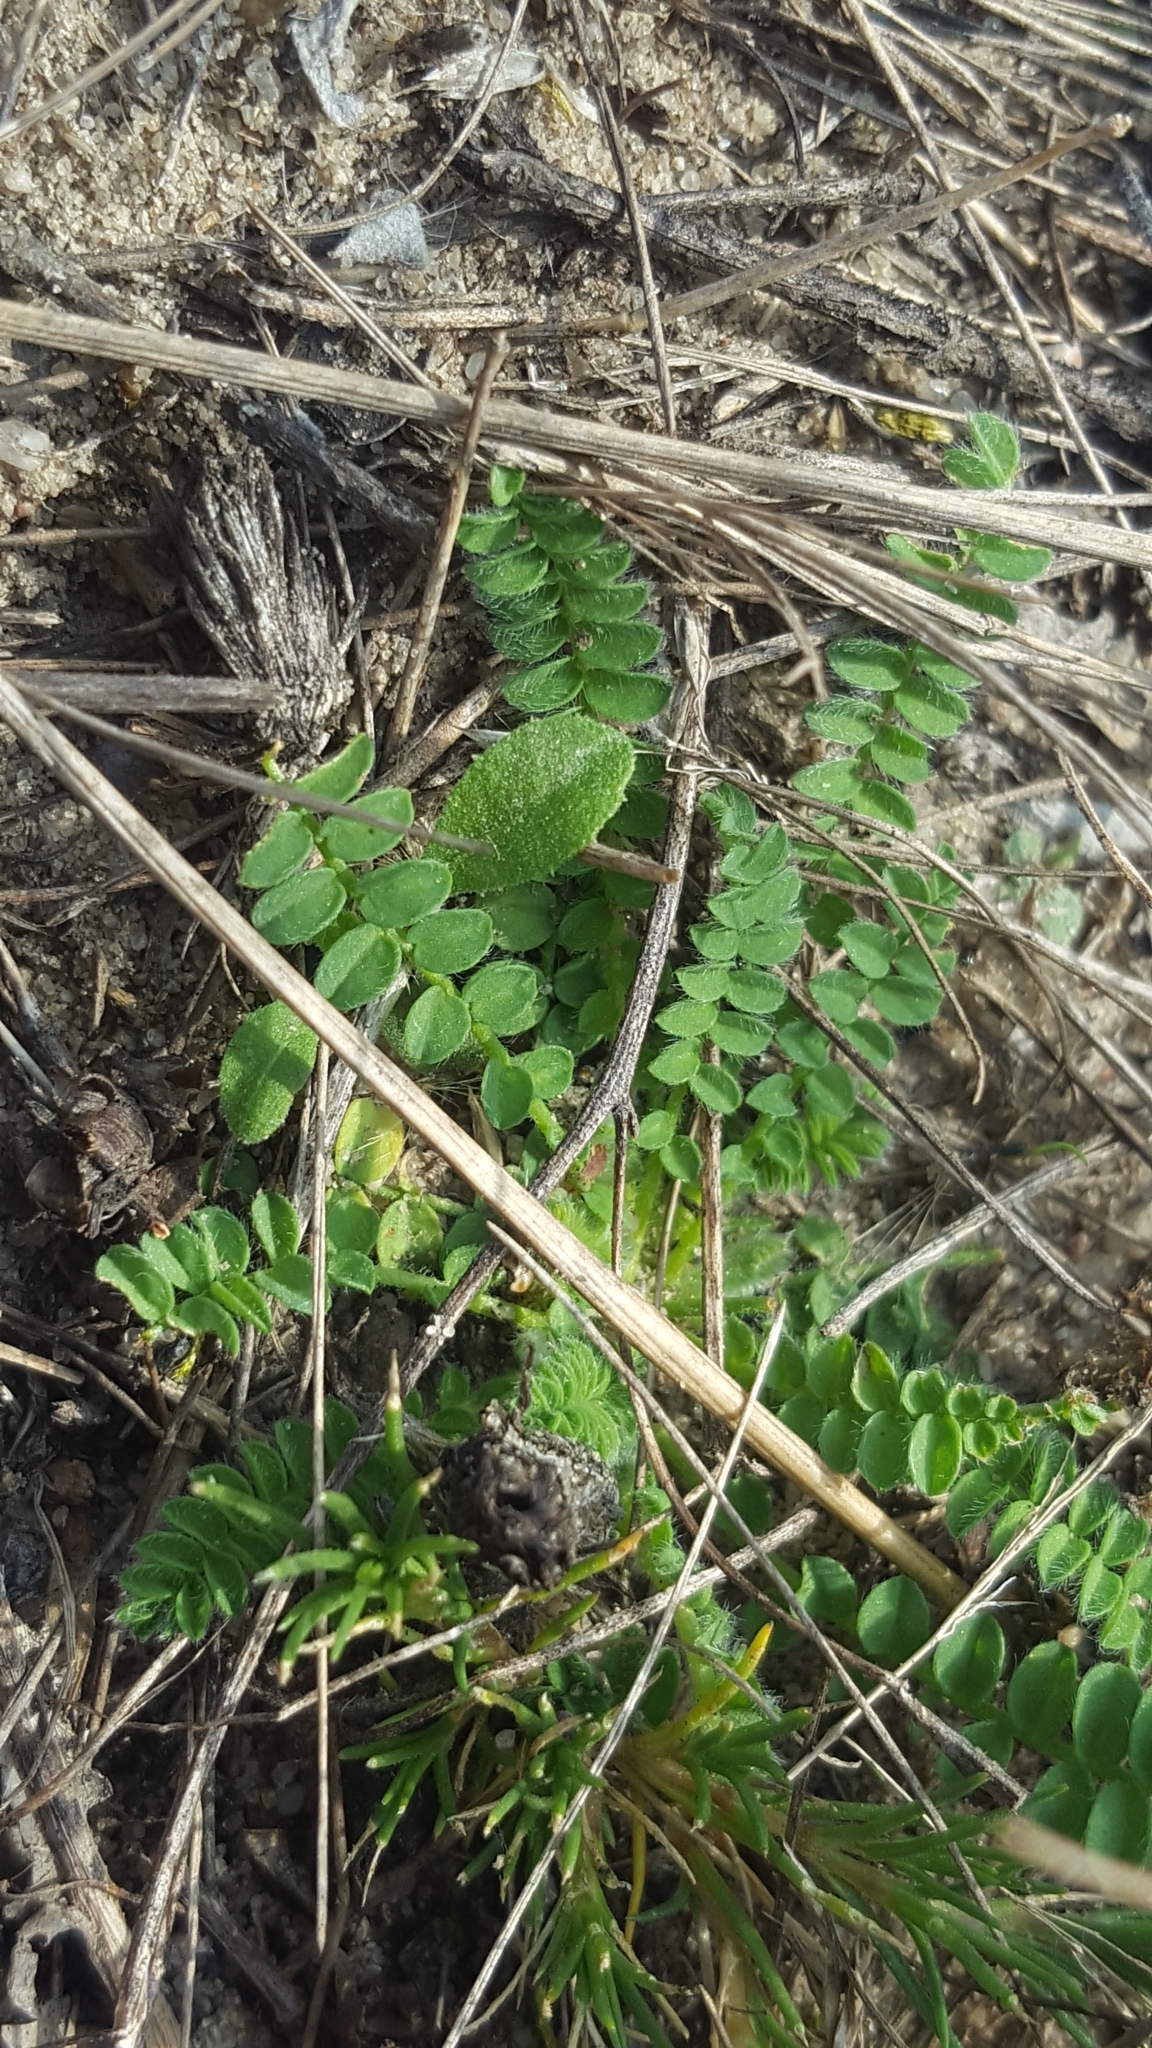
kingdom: Plantae
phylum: Tracheophyta
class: Magnoliopsida
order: Fabales
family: Fabaceae
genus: Ornithopus
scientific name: Ornithopus perpusillus
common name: Bird's-foot
